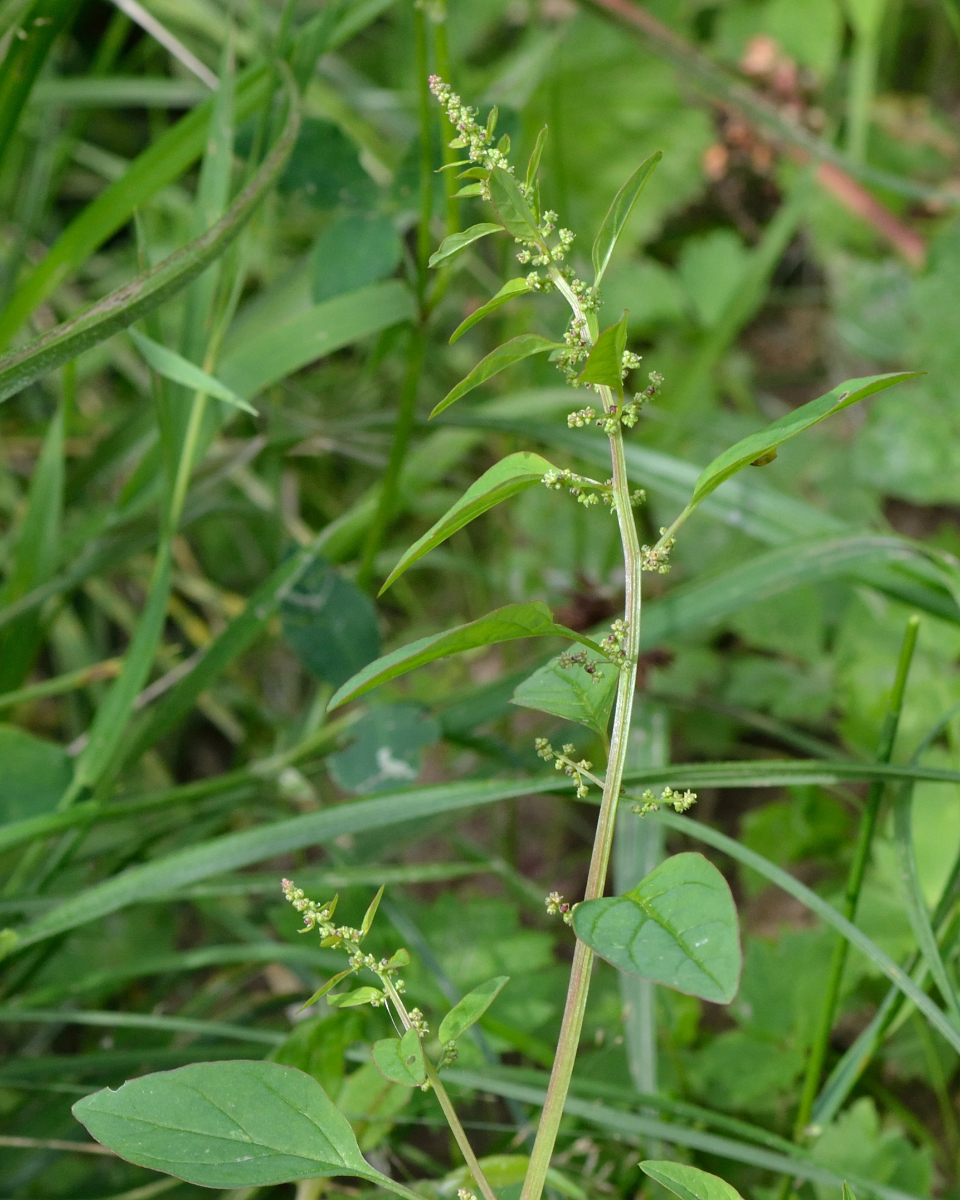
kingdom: Plantae
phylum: Tracheophyta
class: Magnoliopsida
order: Caryophyllales
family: Amaranthaceae
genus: Lipandra
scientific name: Lipandra polysperma
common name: Many-seed goosefoot
